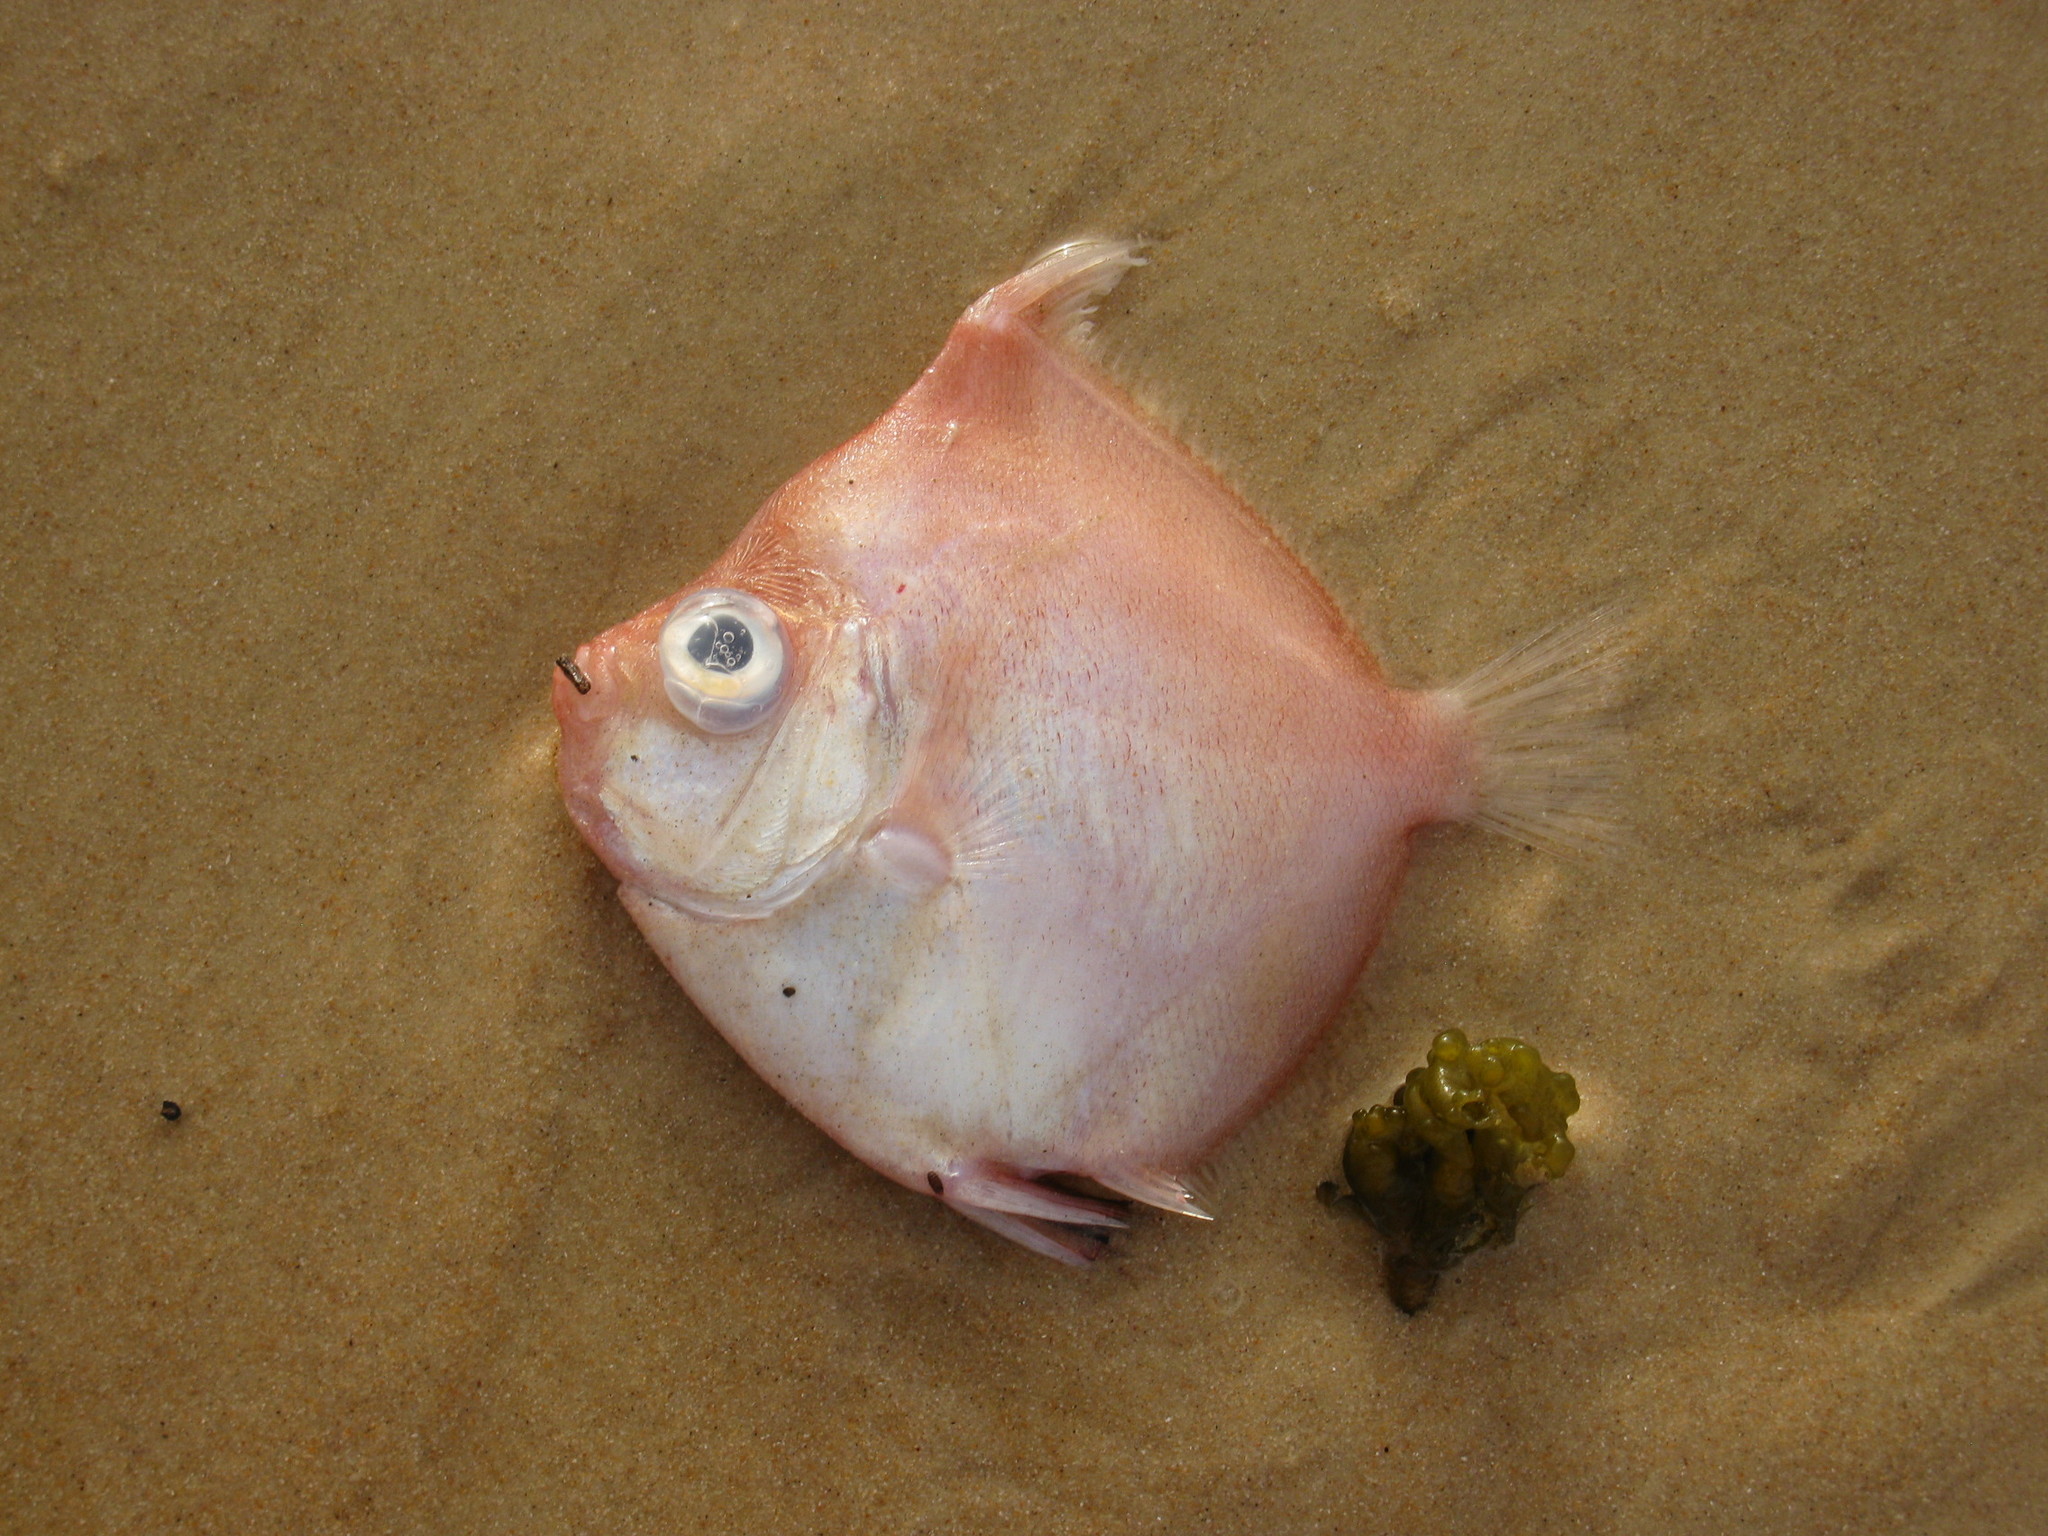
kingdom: Animalia
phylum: Chordata
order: Perciformes
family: Caproidae
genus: Antigonia
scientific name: Antigonia capros
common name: Deepbody boarfish
